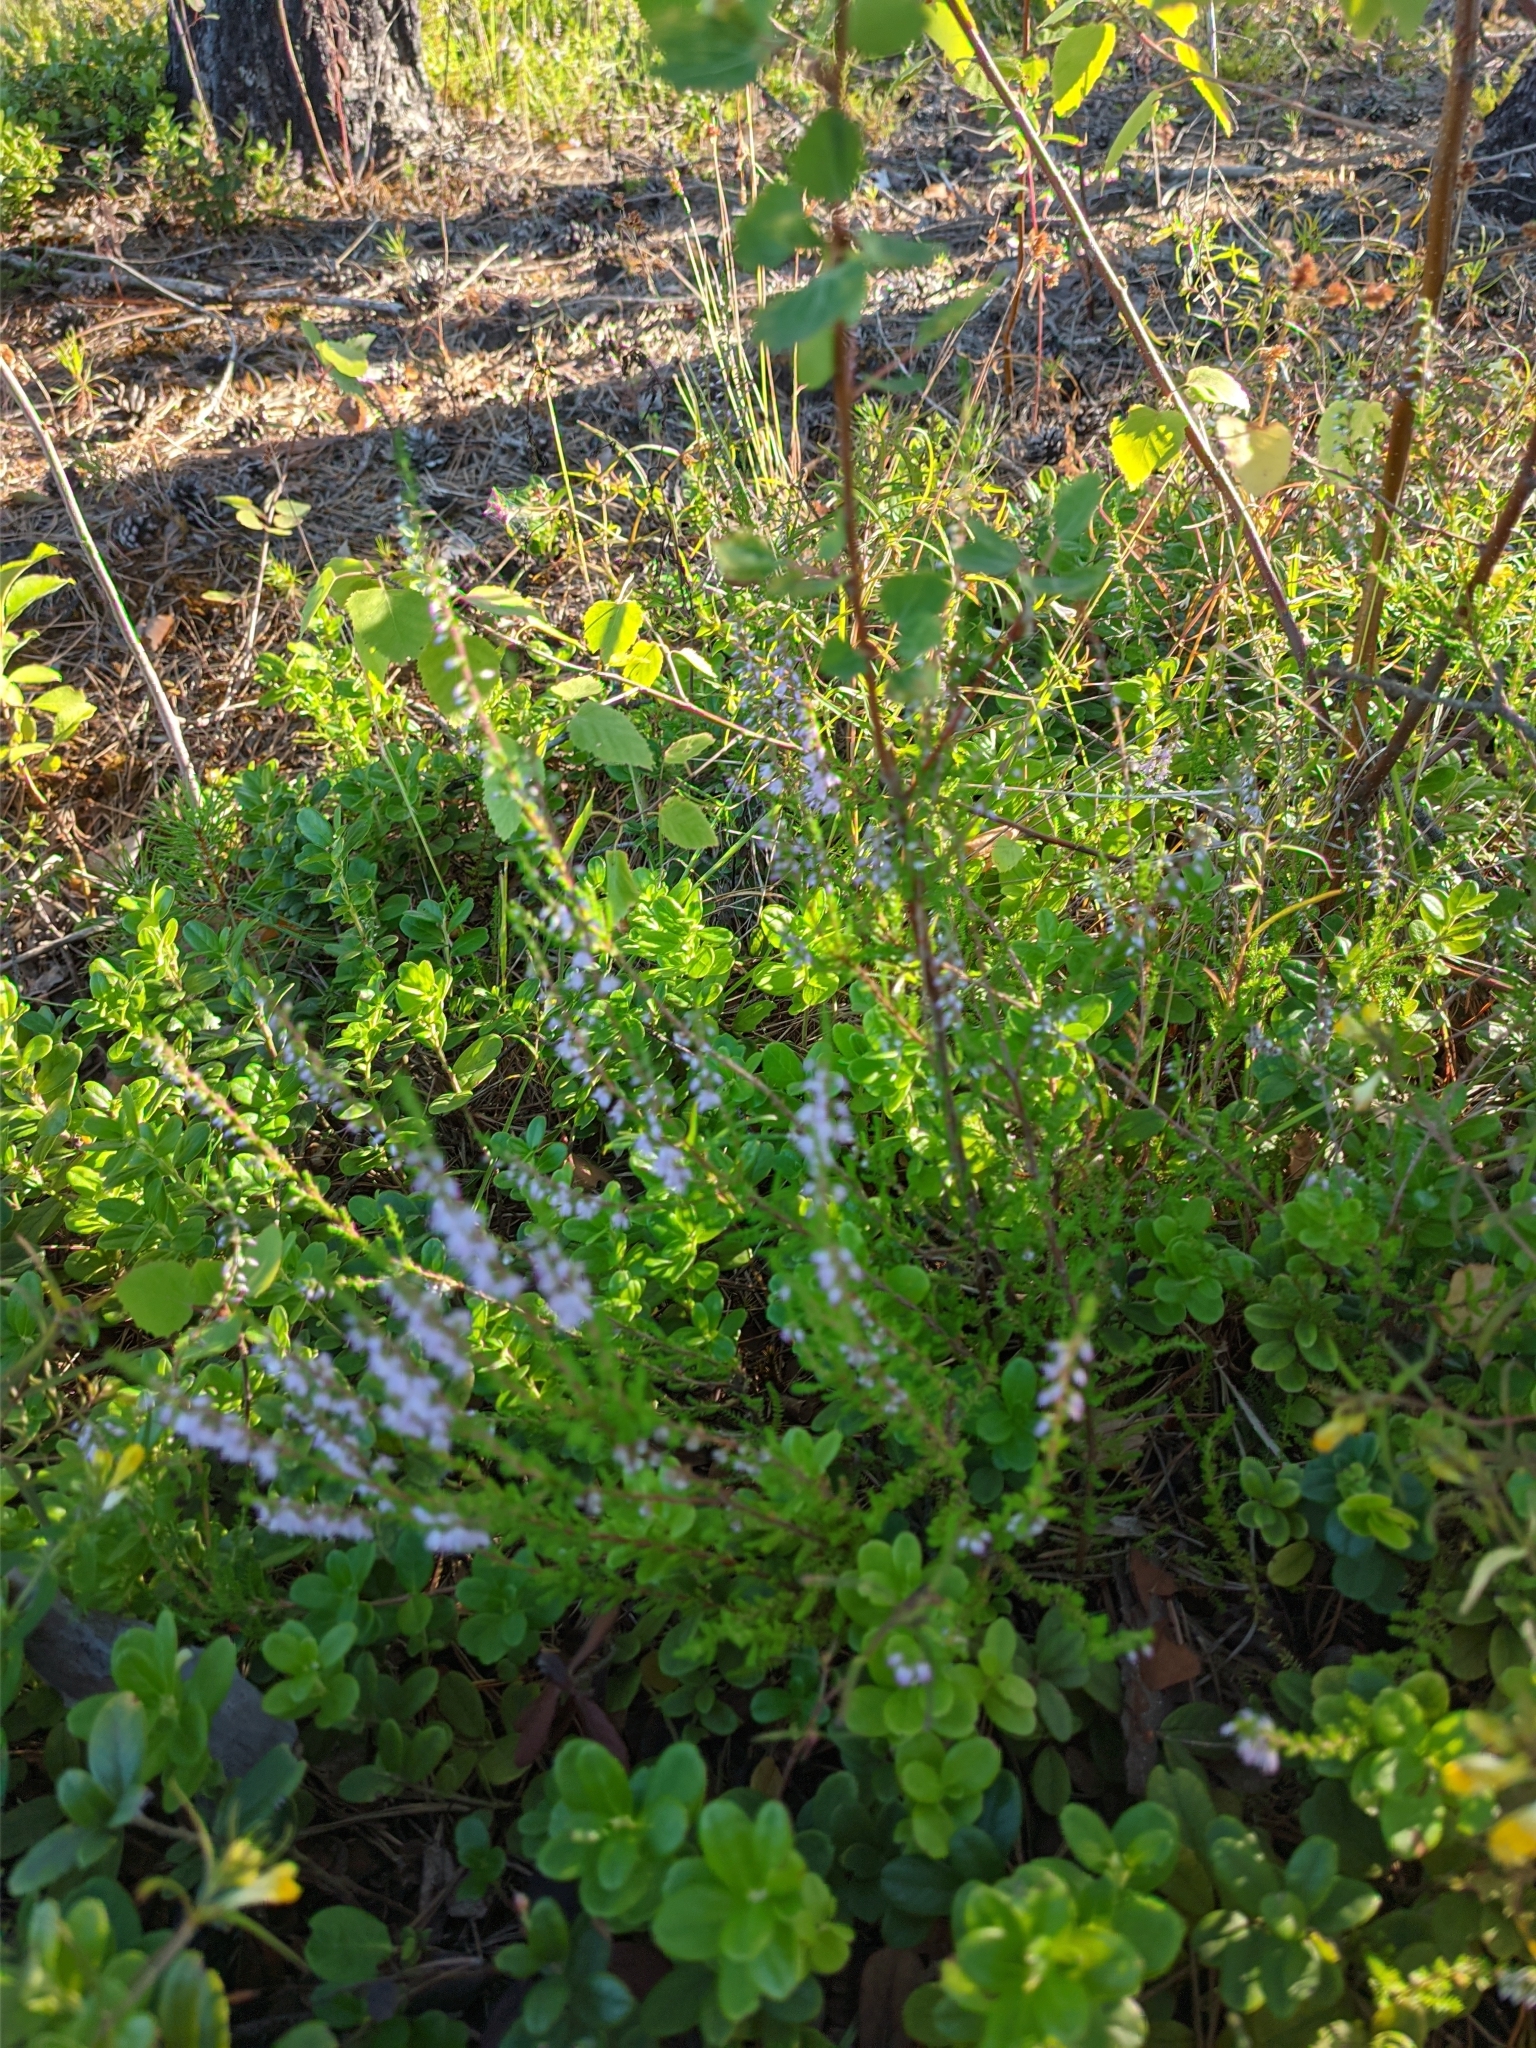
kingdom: Plantae
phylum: Tracheophyta
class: Magnoliopsida
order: Ericales
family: Ericaceae
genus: Calluna
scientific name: Calluna vulgaris
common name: Heather
